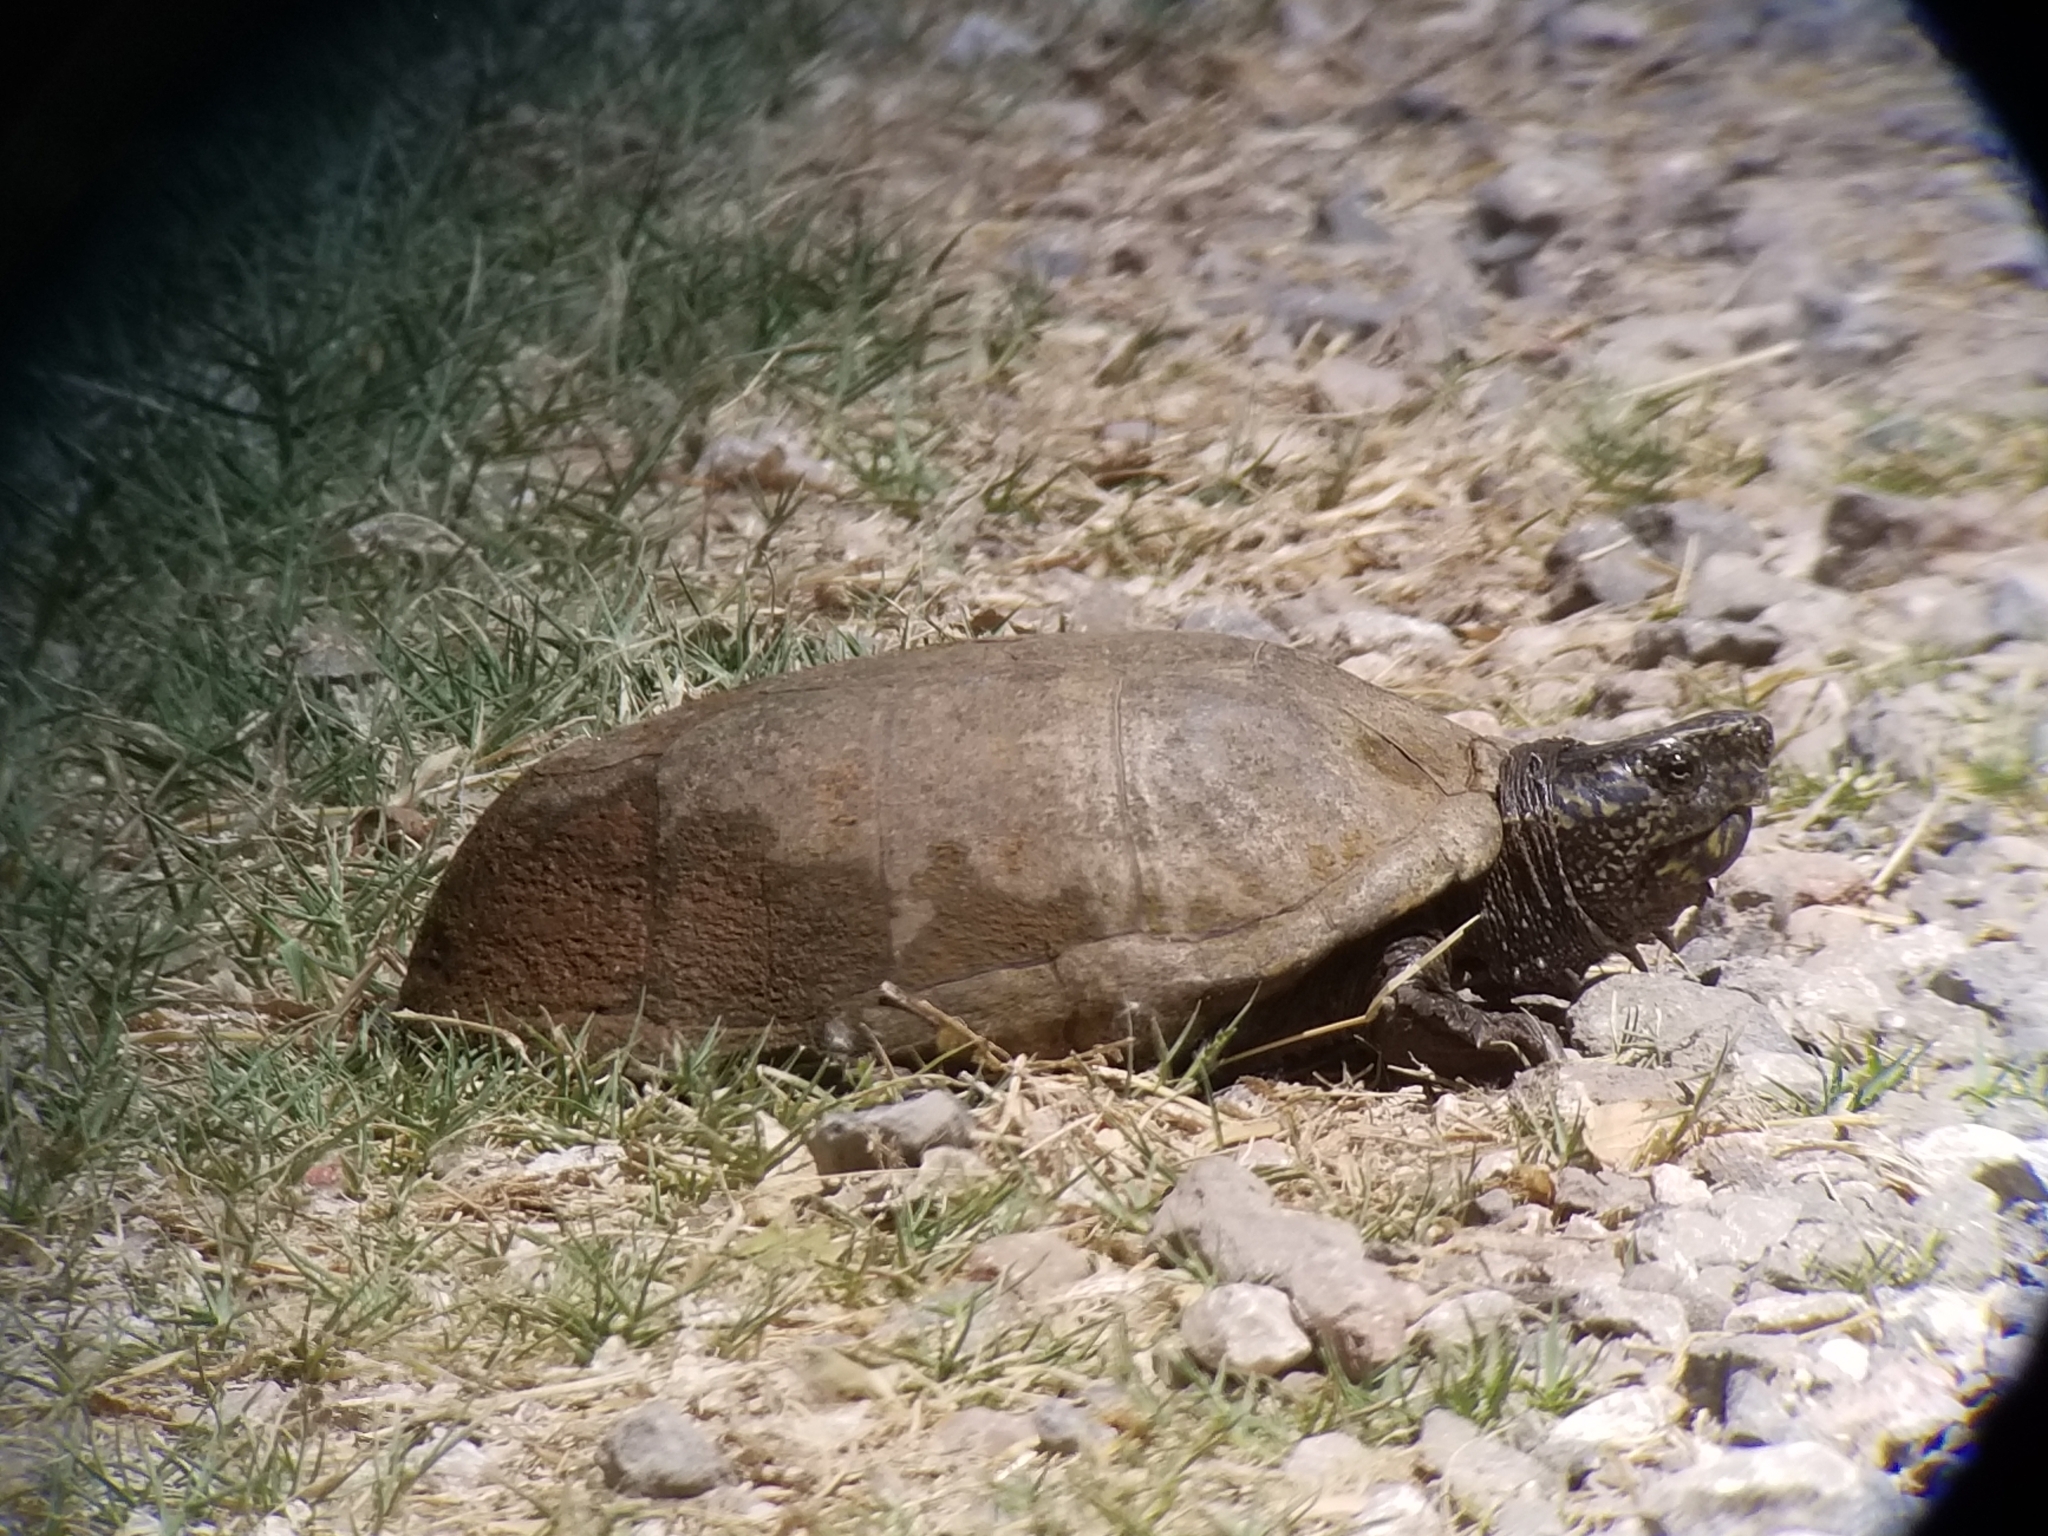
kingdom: Animalia
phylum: Chordata
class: Testudines
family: Kinosternidae
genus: Kinosternon
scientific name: Kinosternon sonoriense
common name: Sonora mud turtle
